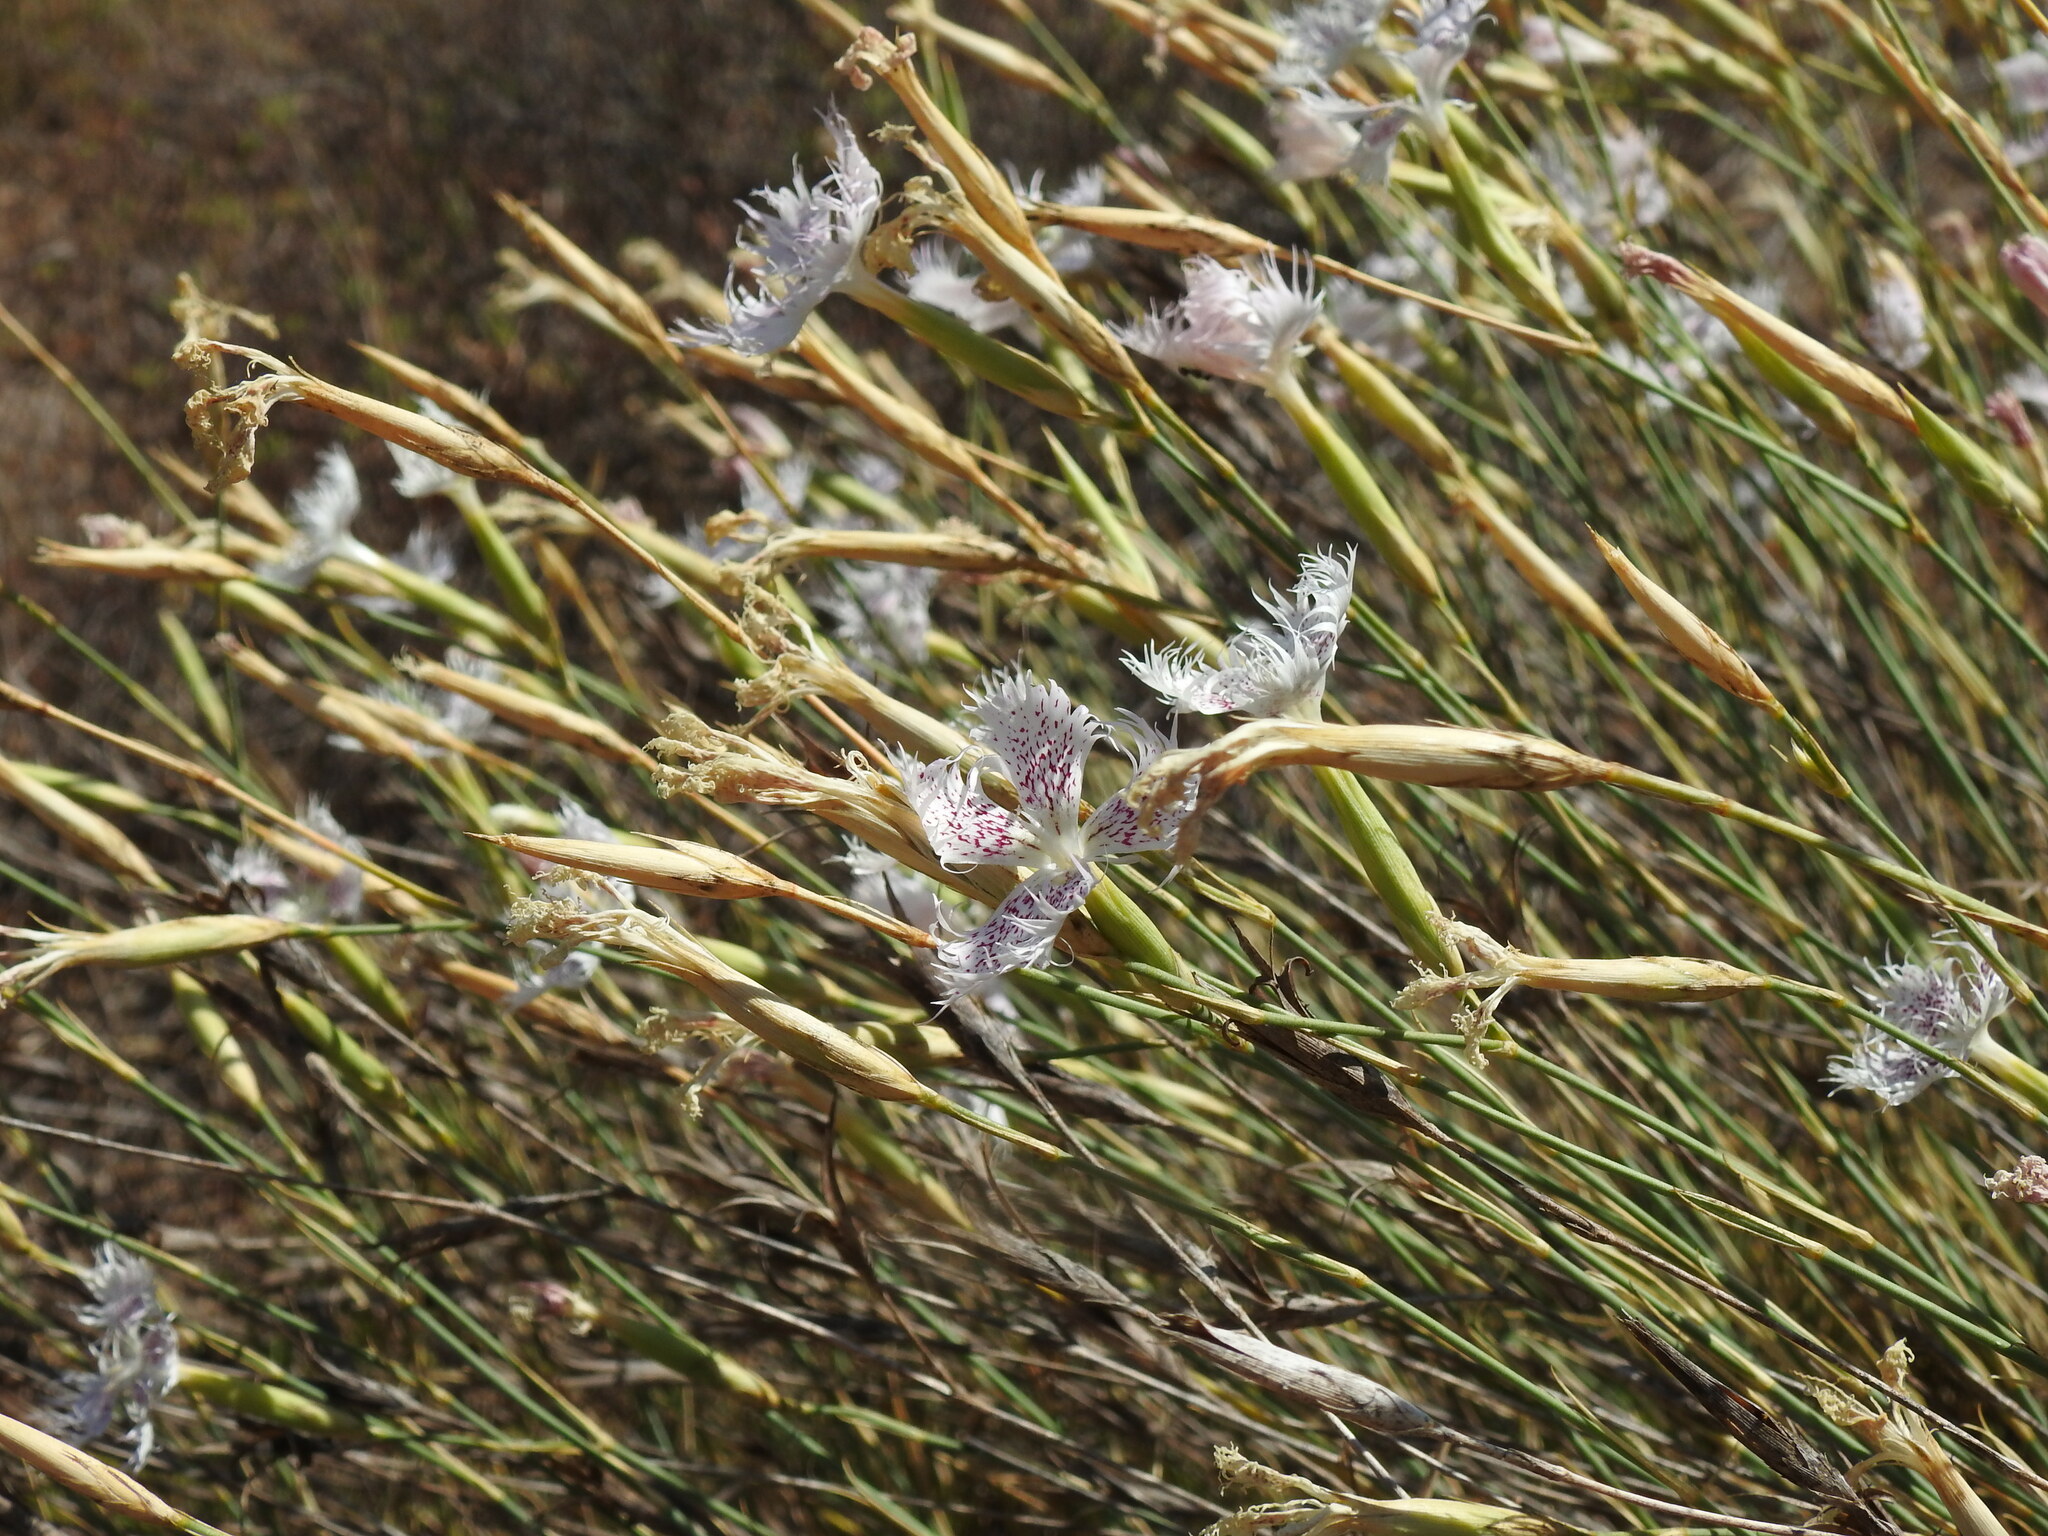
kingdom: Plantae
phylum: Tracheophyta
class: Magnoliopsida
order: Caryophyllales
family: Caryophyllaceae
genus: Dianthus
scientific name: Dianthus broteri
